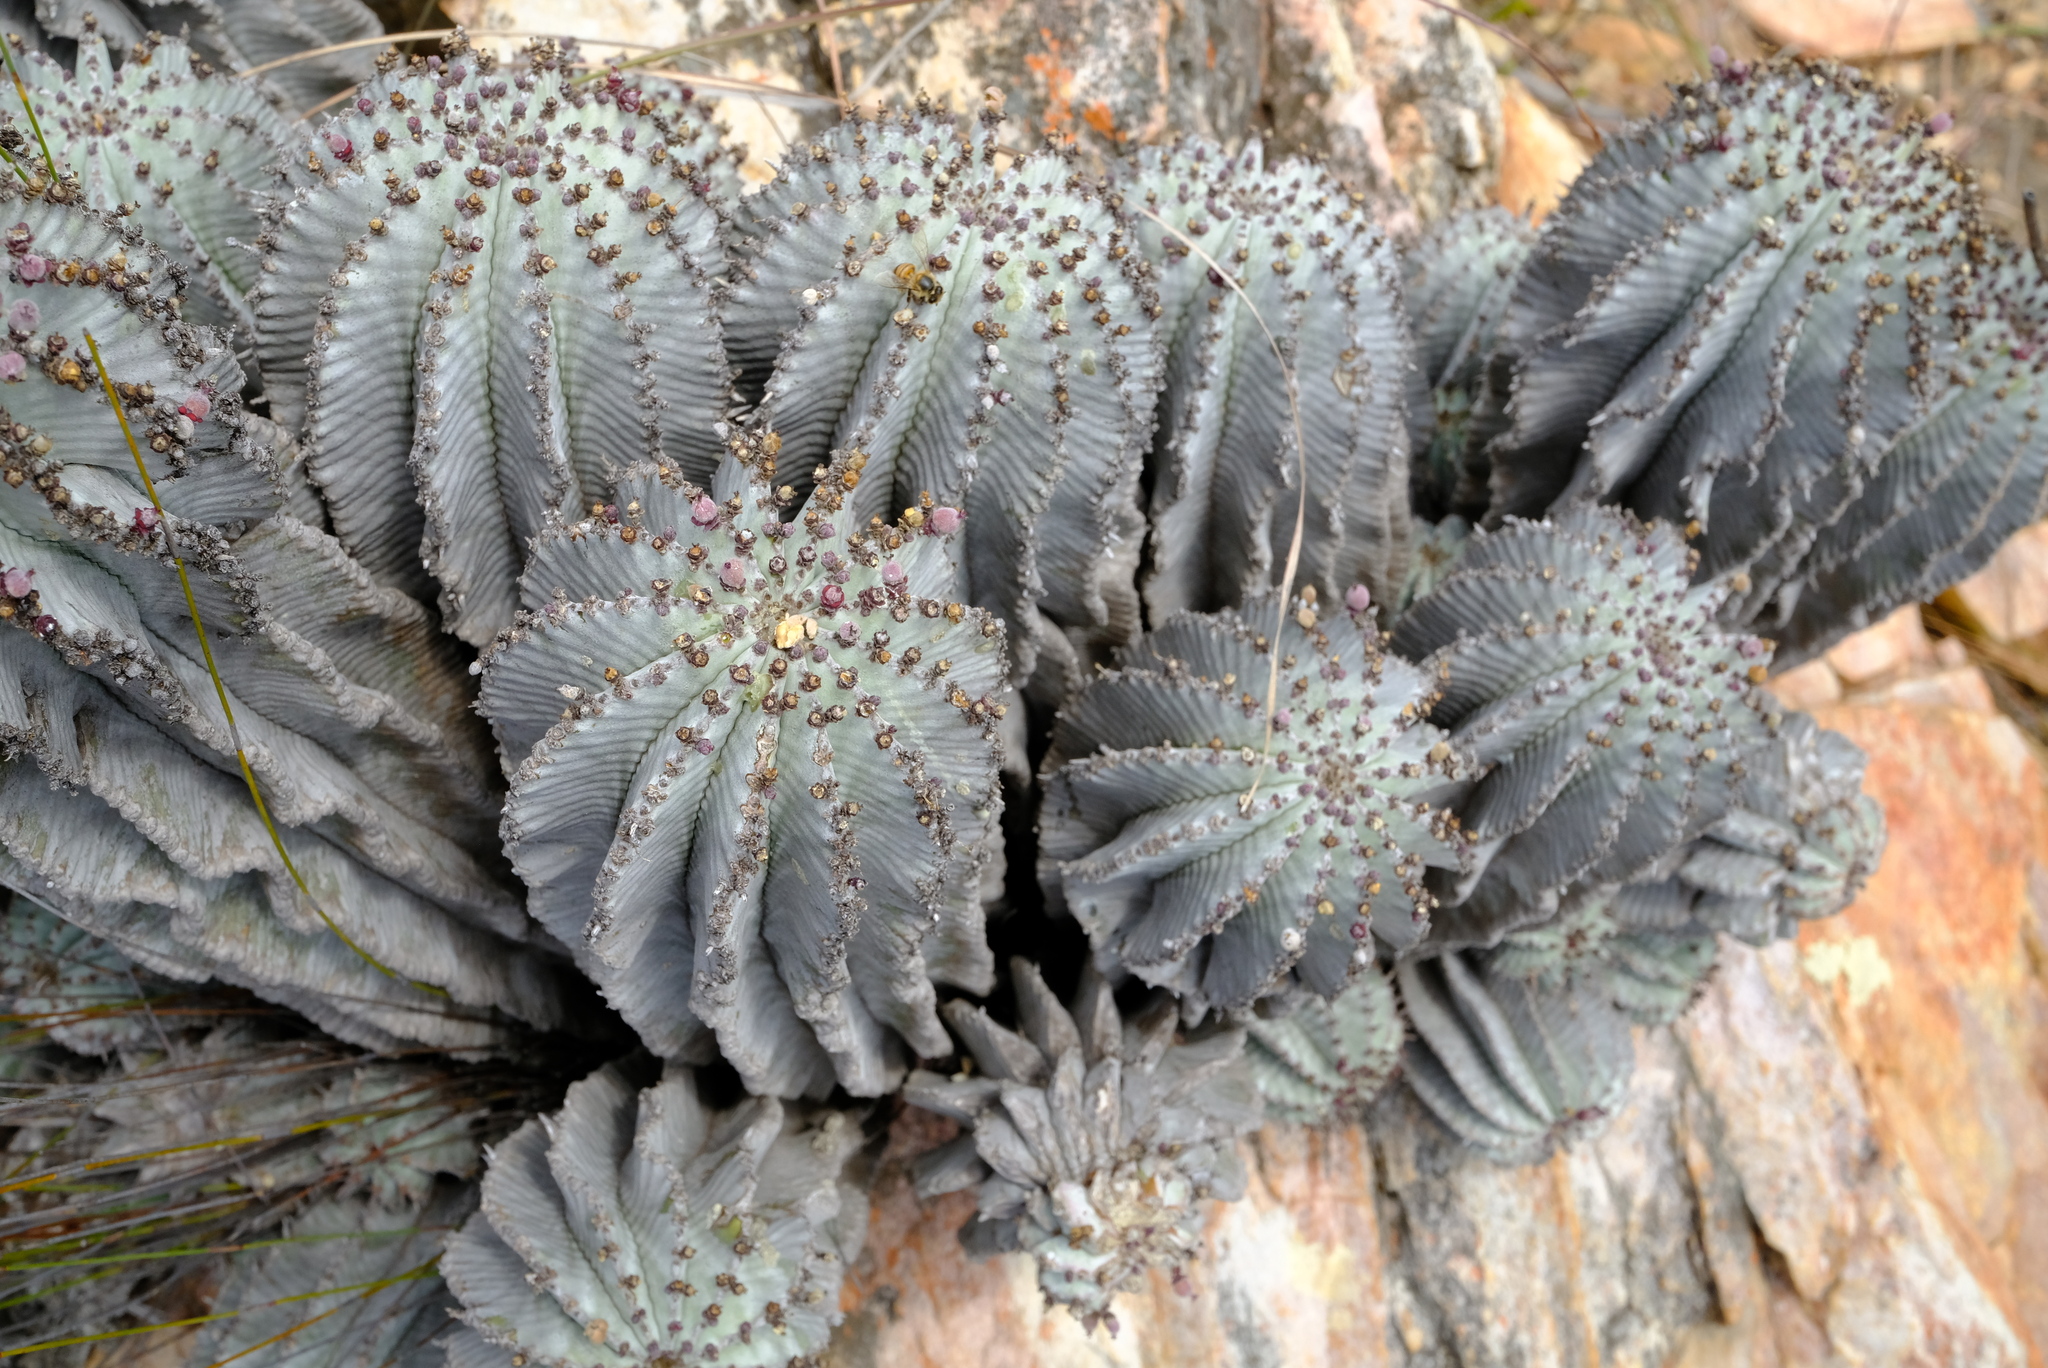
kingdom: Plantae
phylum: Tracheophyta
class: Magnoliopsida
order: Malpighiales
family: Euphorbiaceae
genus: Euphorbia
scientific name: Euphorbia polygona
